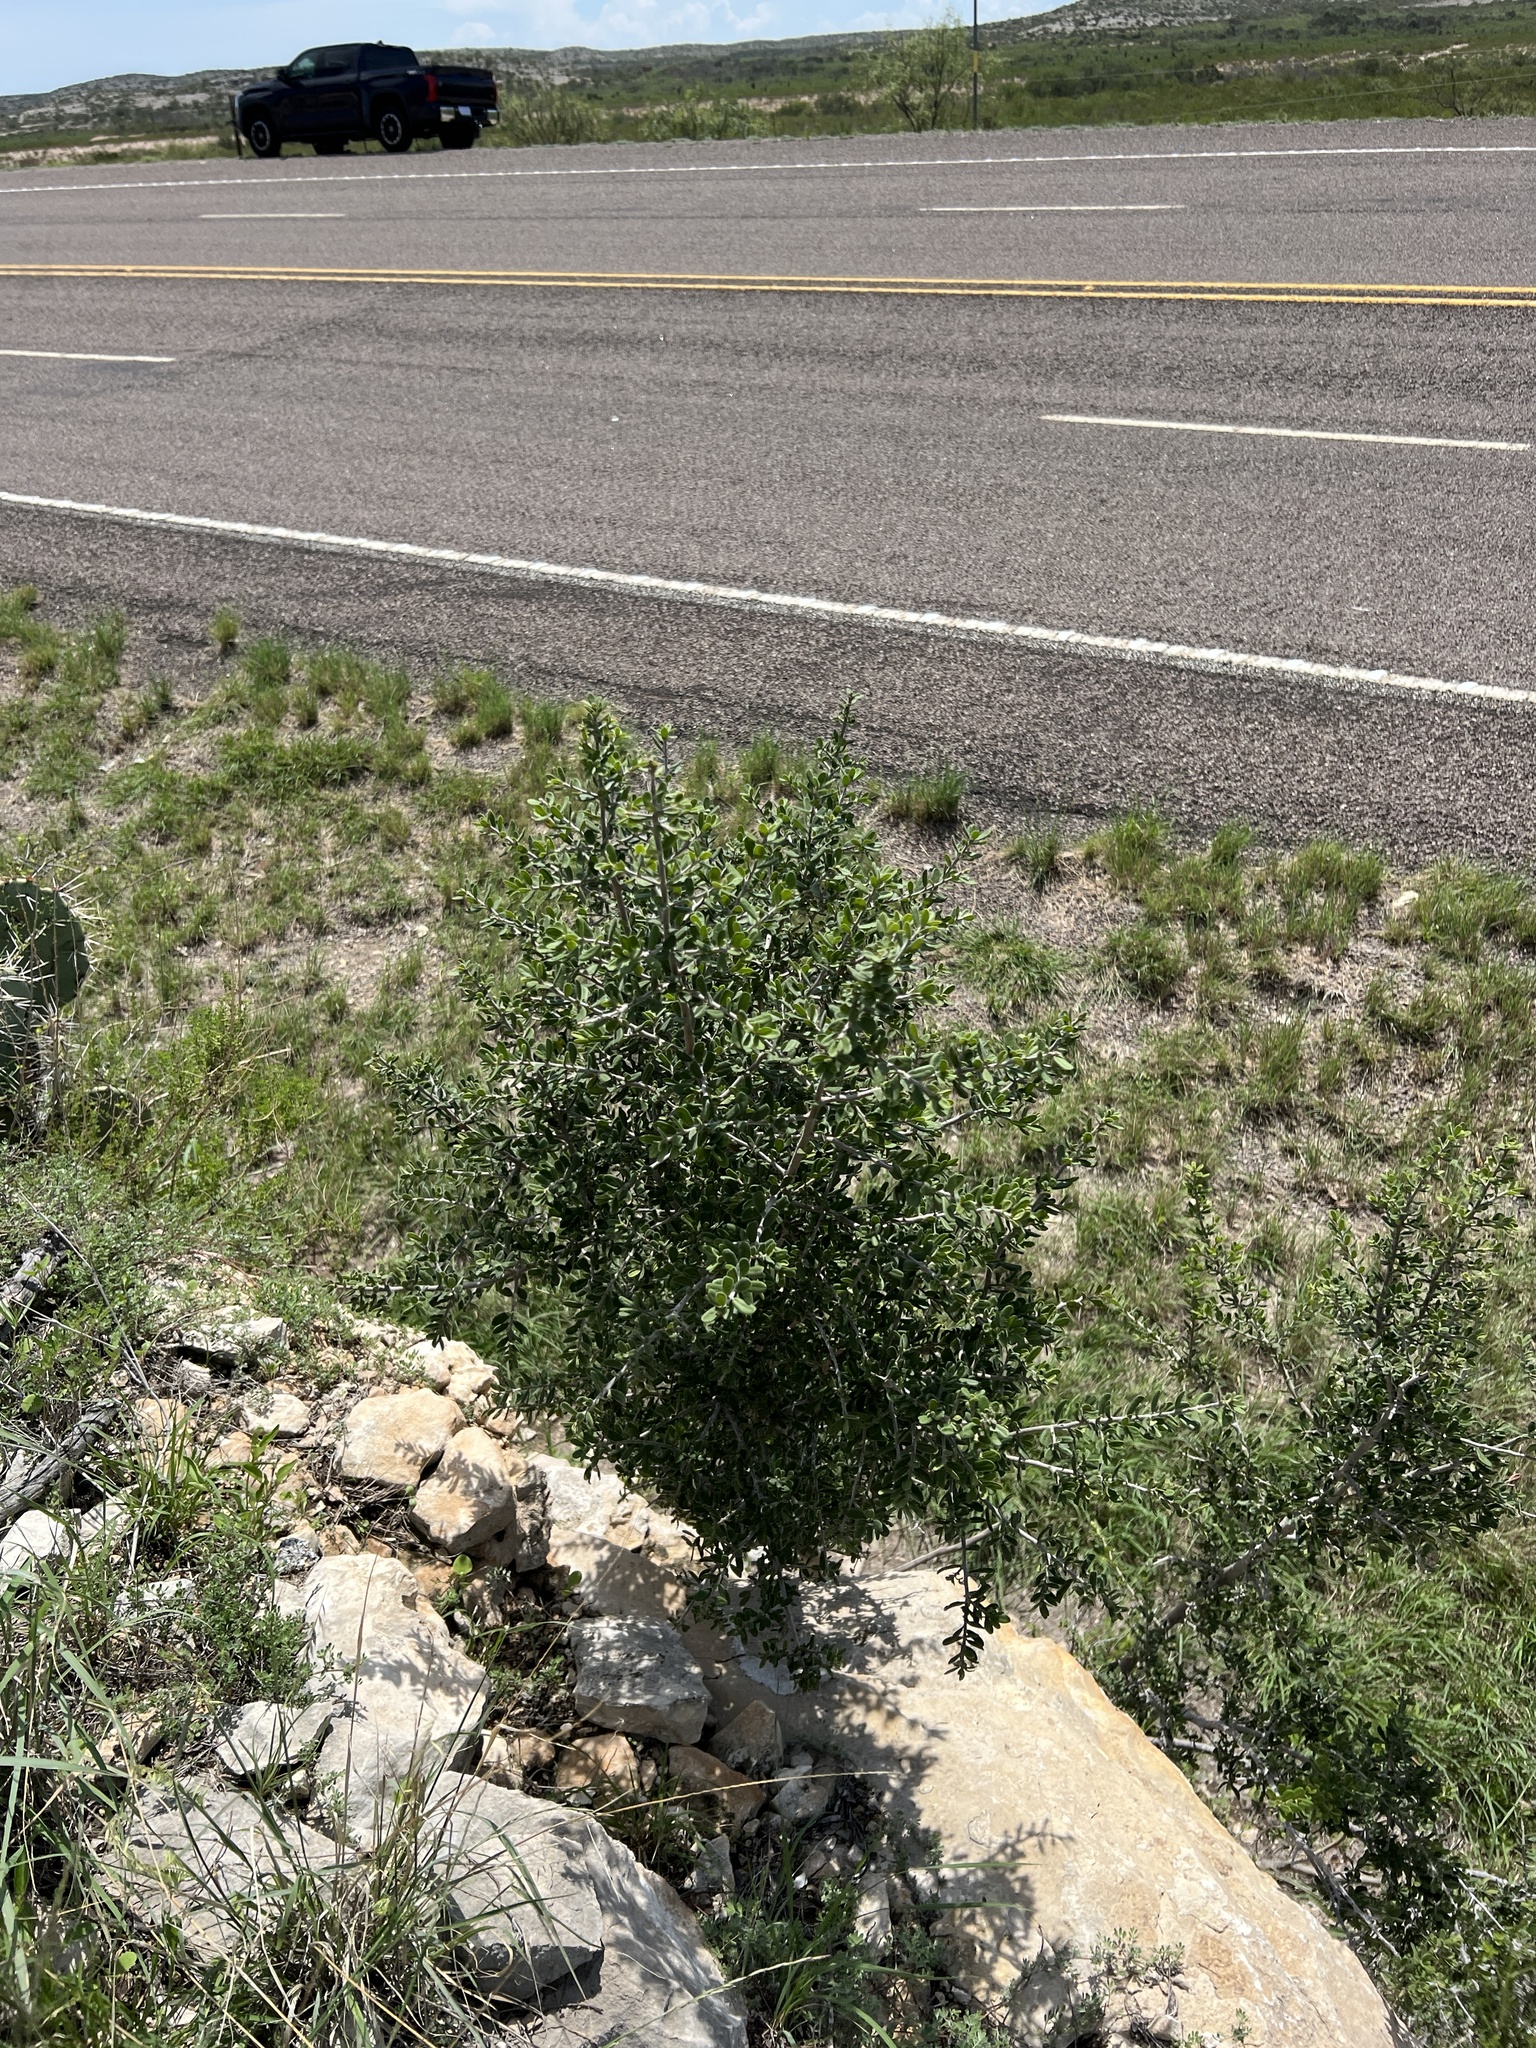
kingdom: Plantae
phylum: Tracheophyta
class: Magnoliopsida
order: Ericales
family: Ebenaceae
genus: Diospyros
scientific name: Diospyros texana
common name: Texas persimmon
